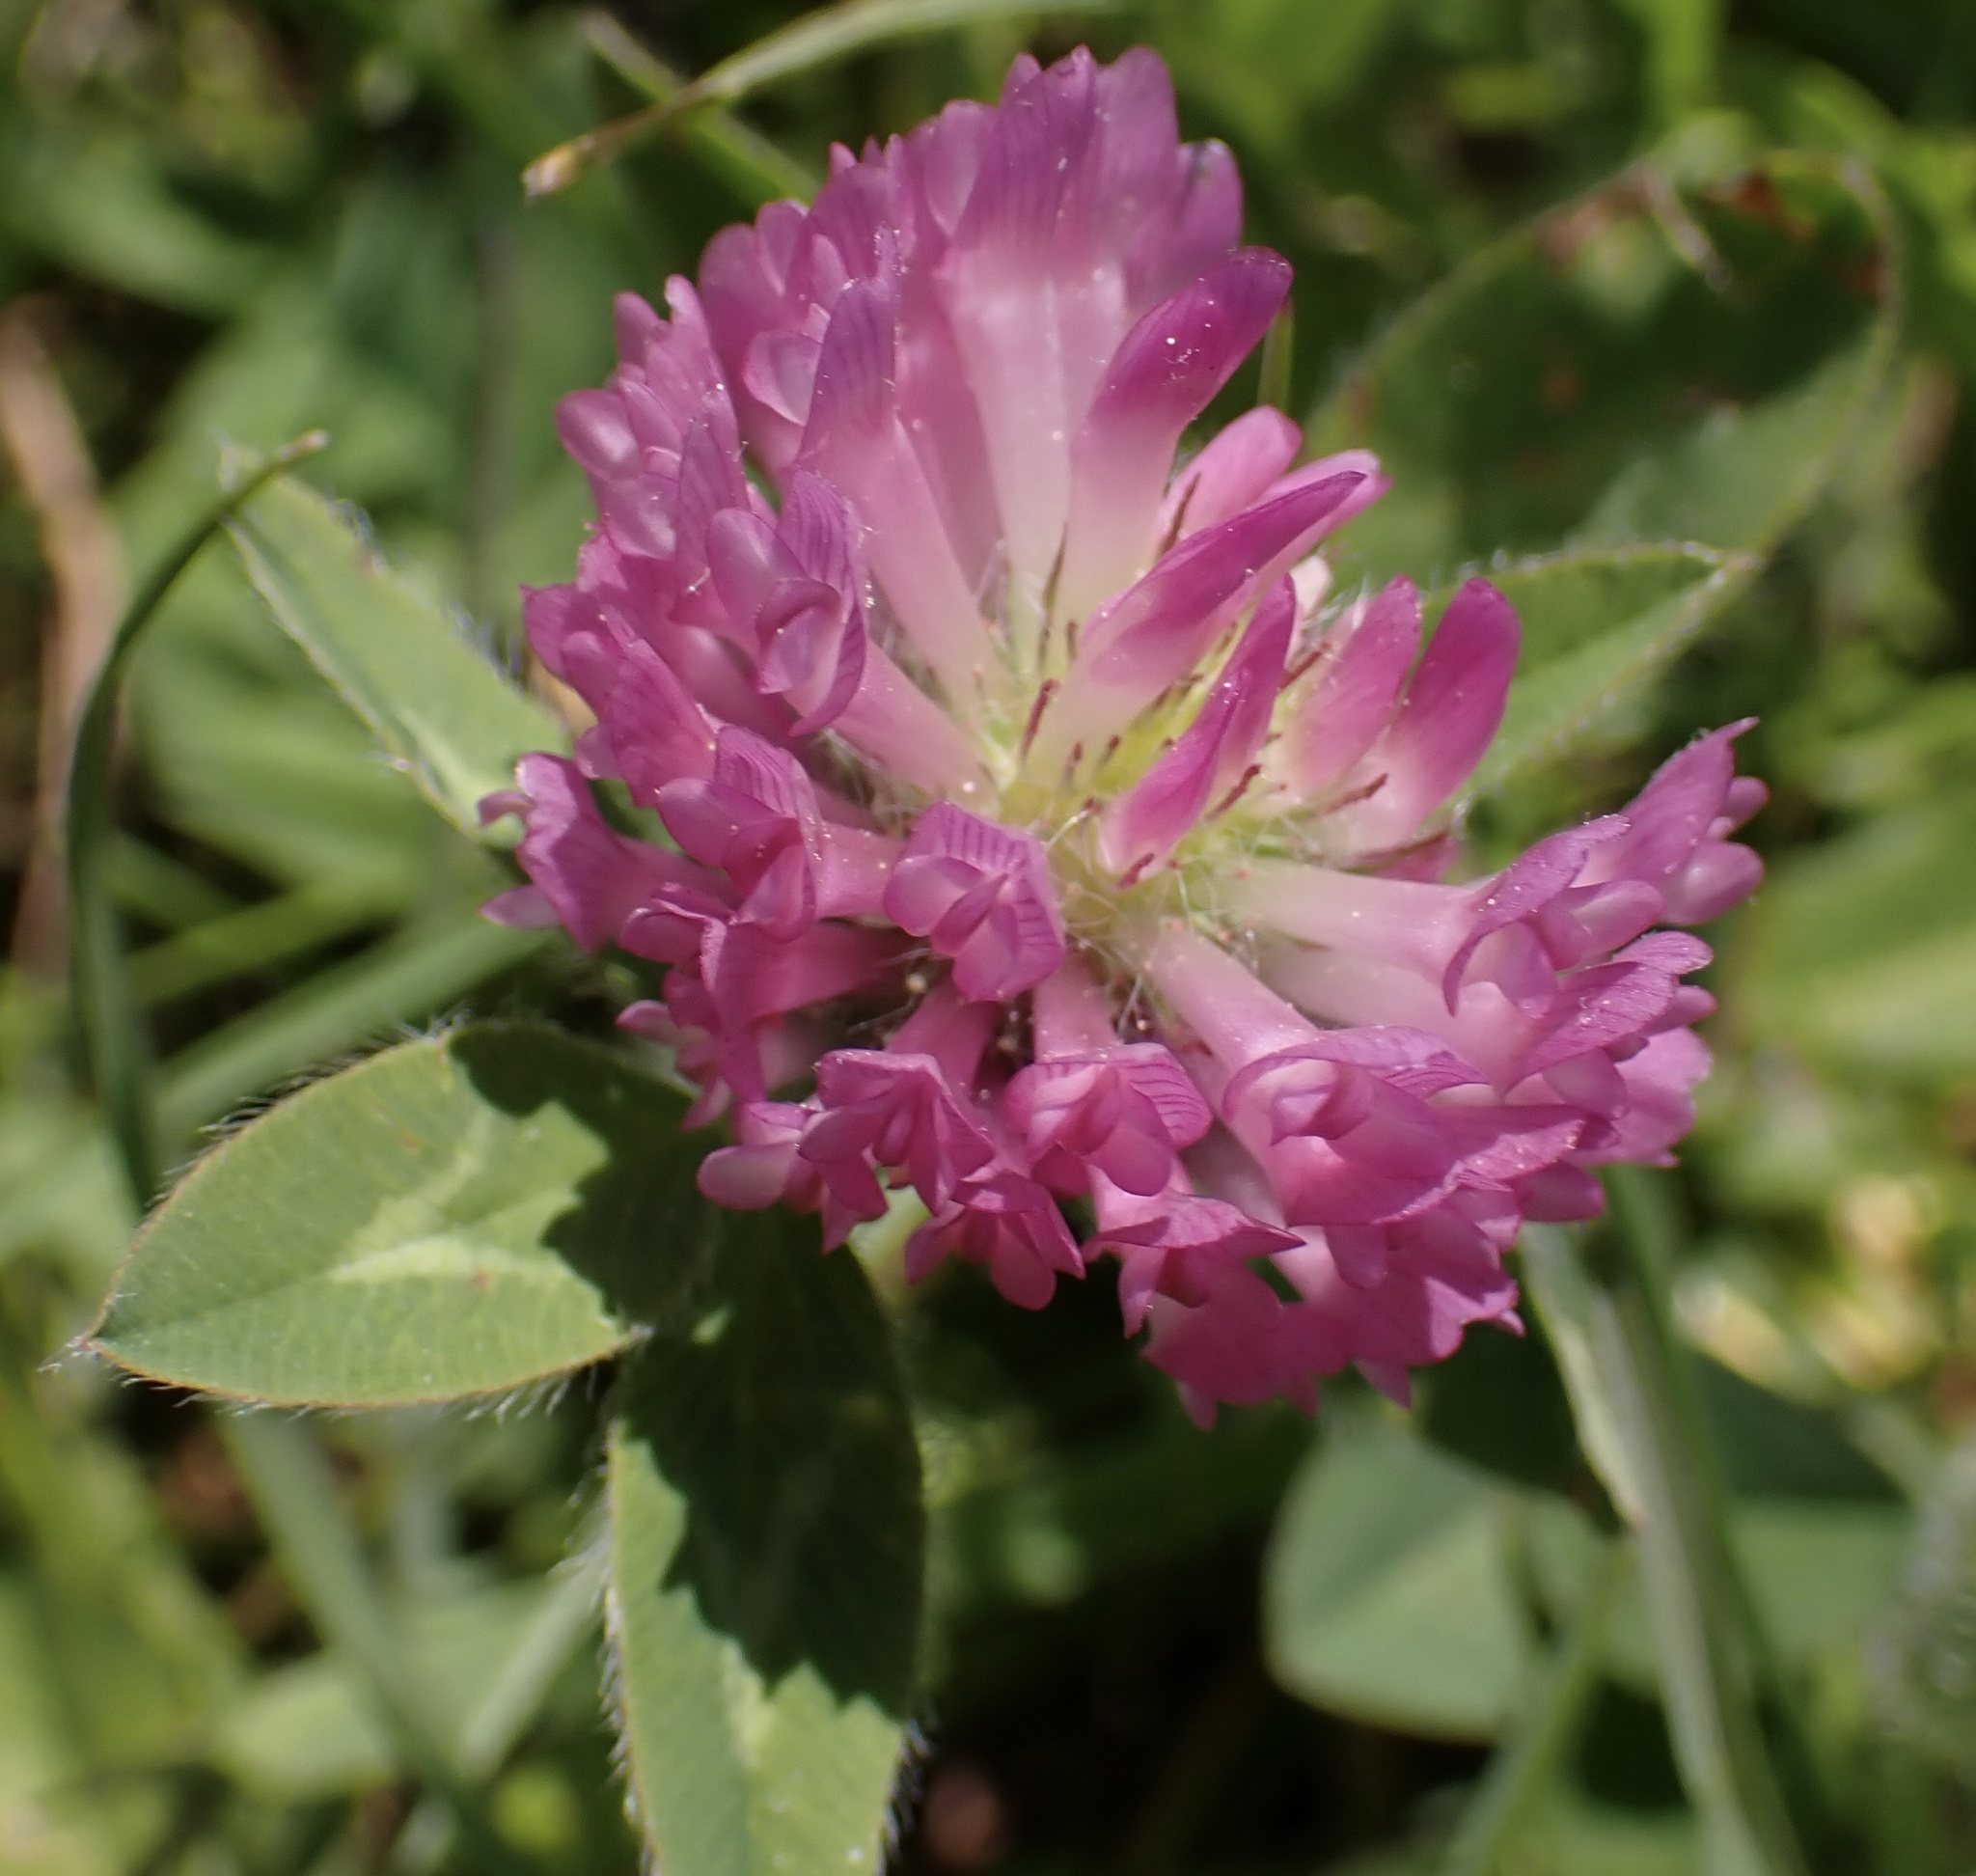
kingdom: Plantae
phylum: Tracheophyta
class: Magnoliopsida
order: Fabales
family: Fabaceae
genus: Trifolium
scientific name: Trifolium pratense
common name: Red clover
